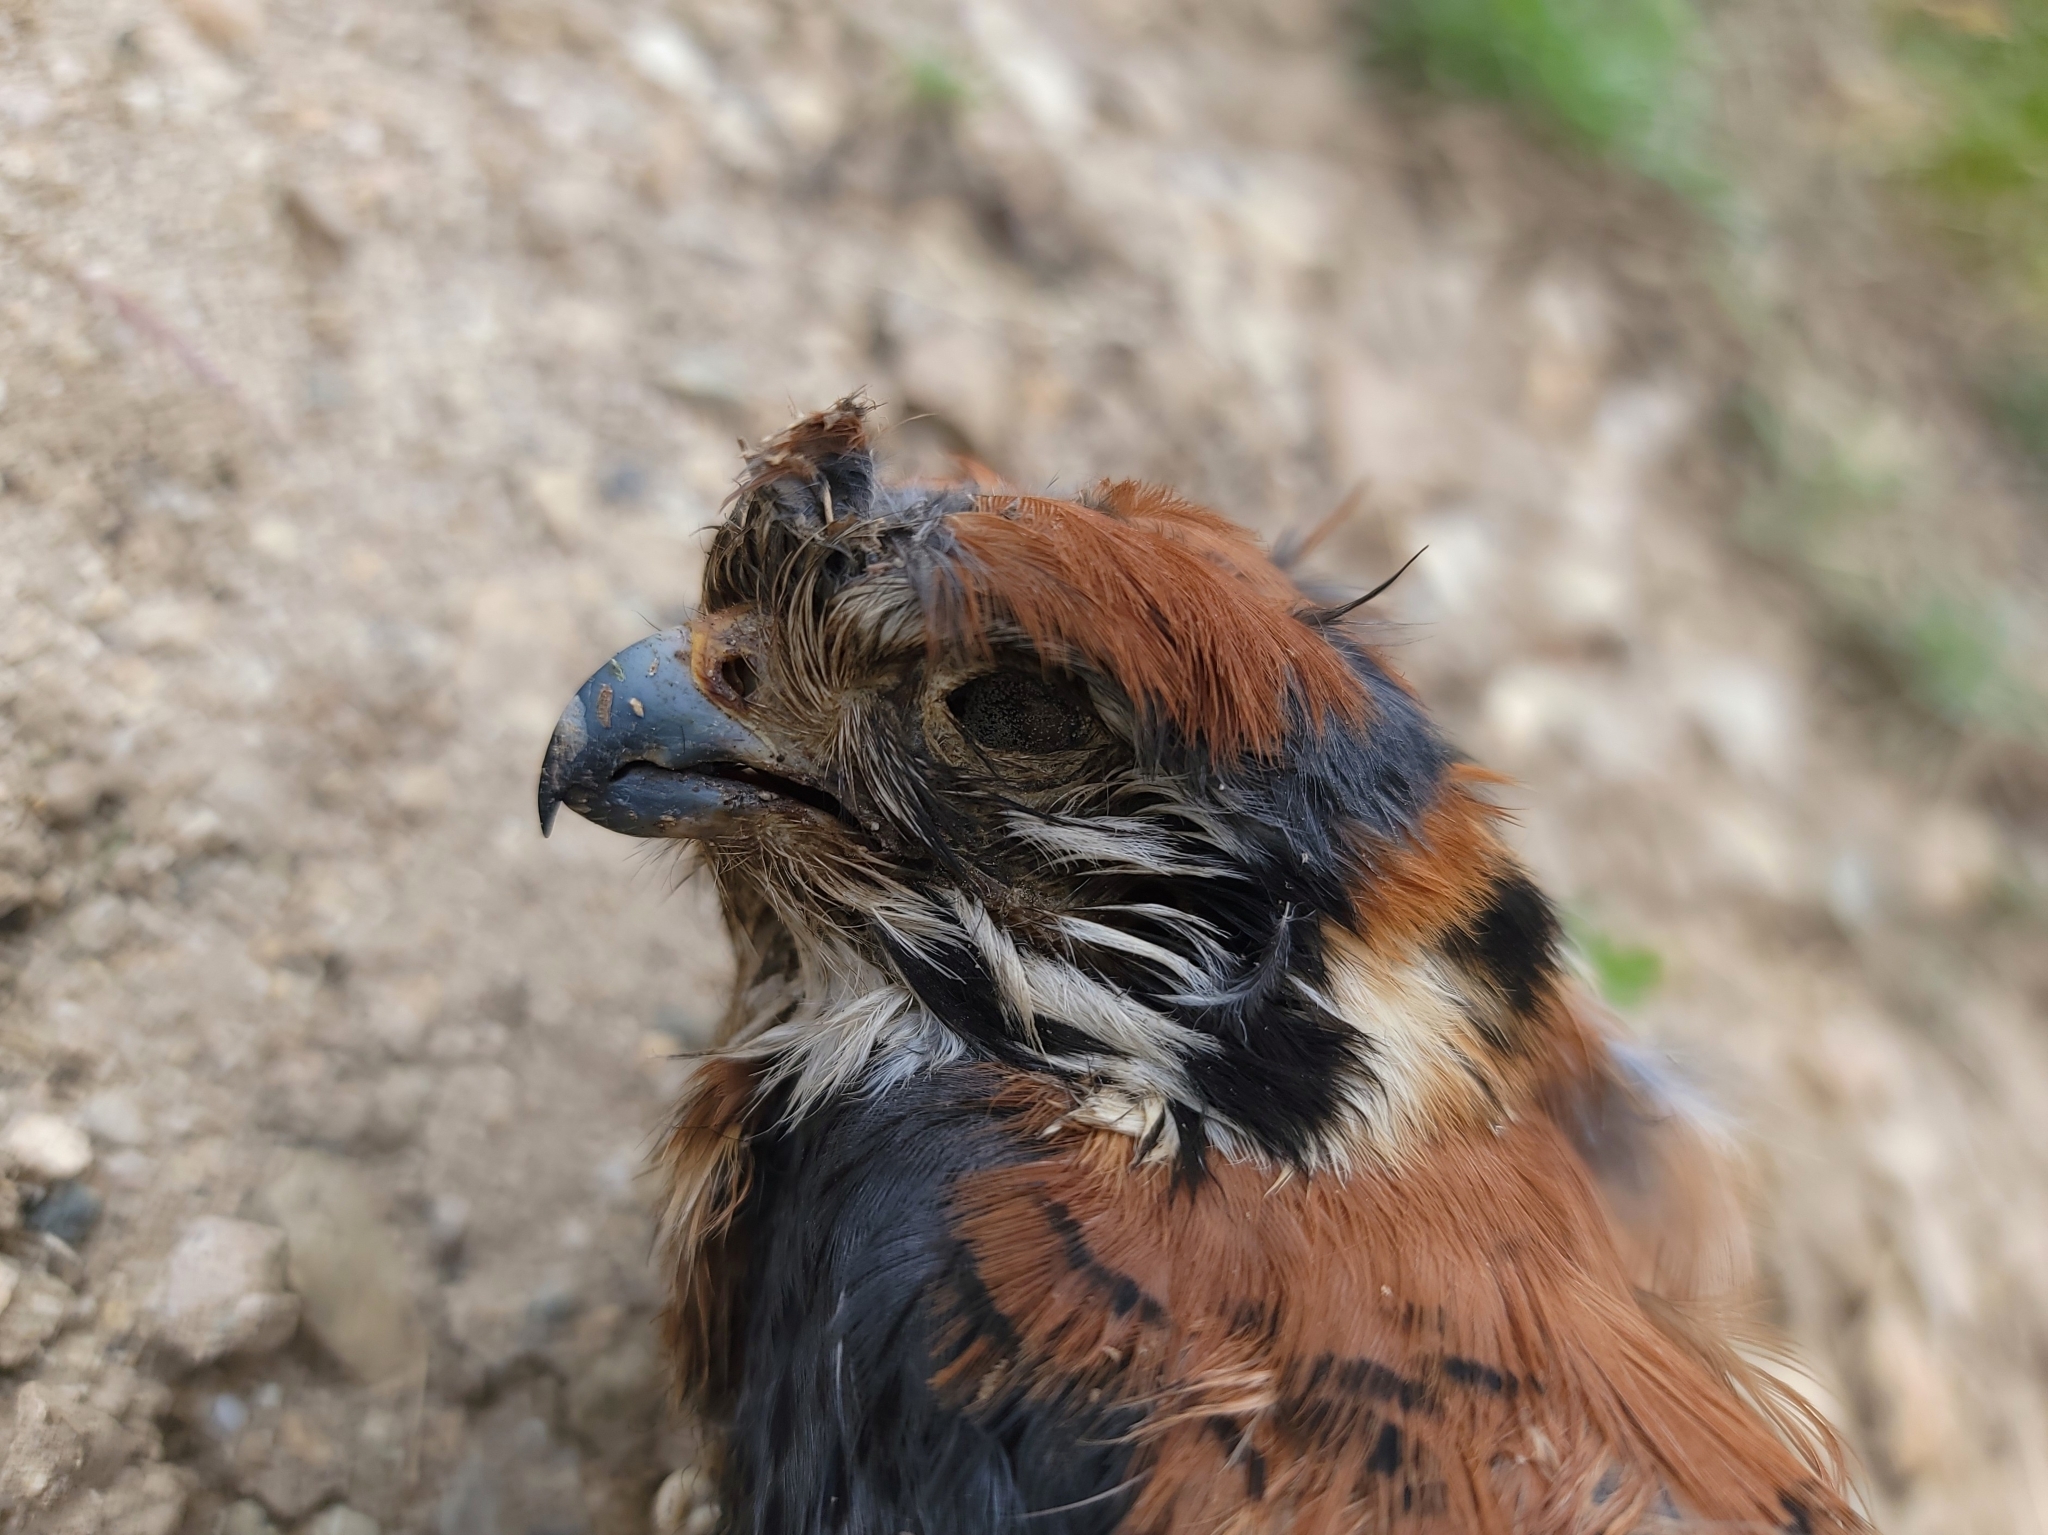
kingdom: Animalia
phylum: Chordata
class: Aves
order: Falconiformes
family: Falconidae
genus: Falco
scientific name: Falco sparverius
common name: American kestrel
